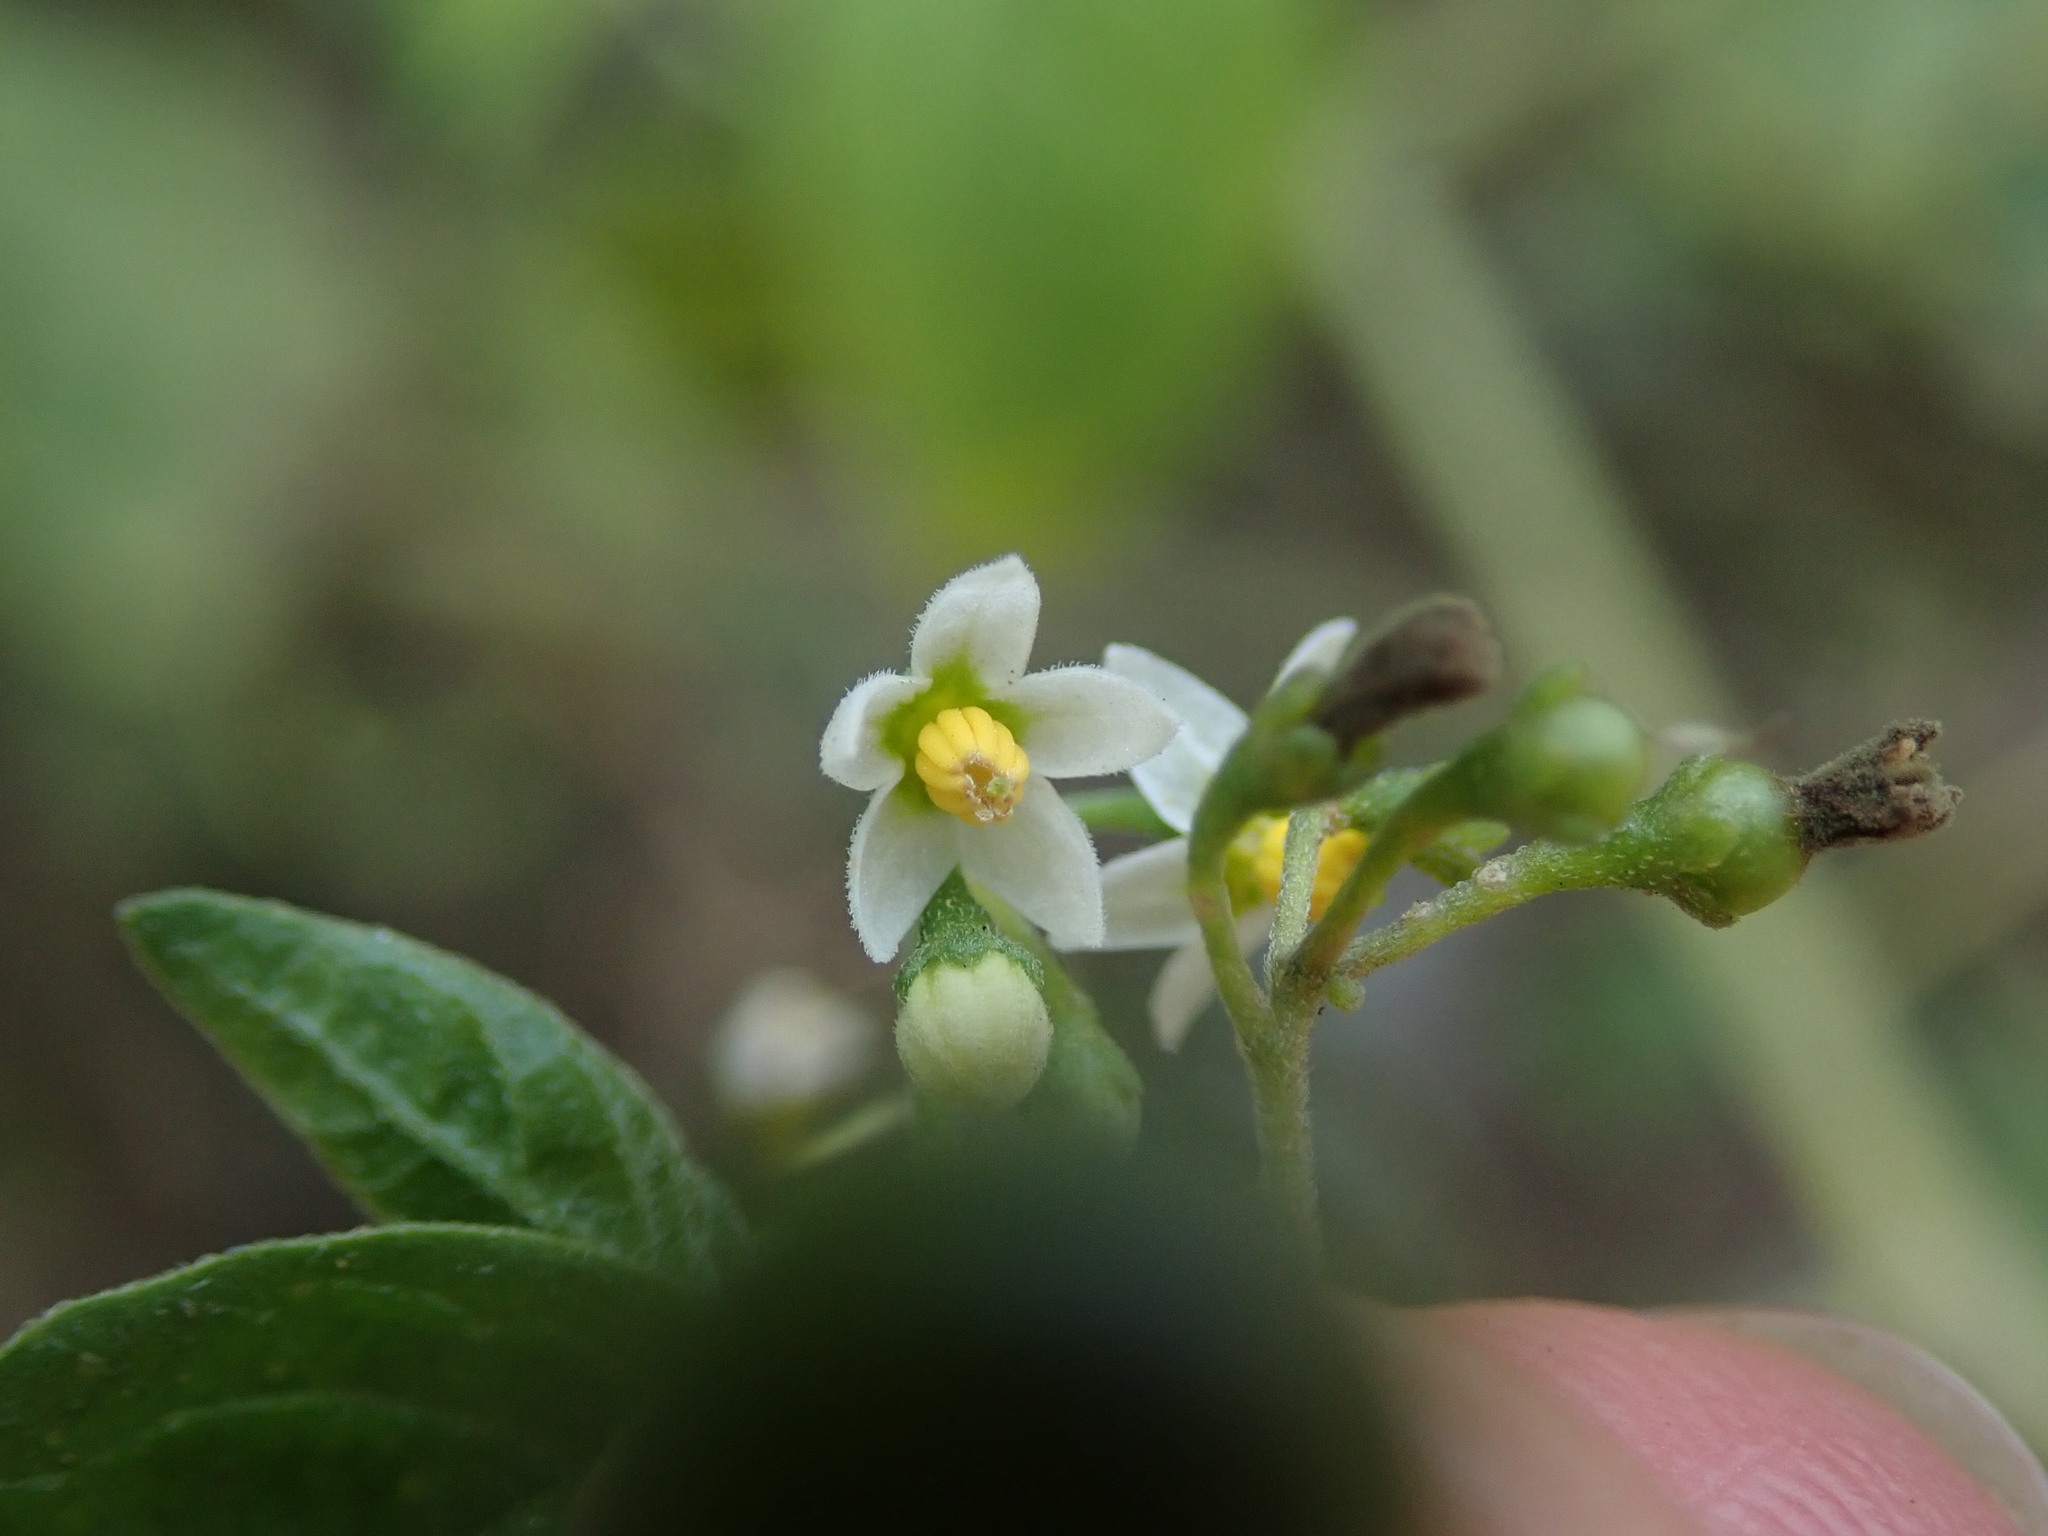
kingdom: Plantae
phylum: Tracheophyta
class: Magnoliopsida
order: Solanales
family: Solanaceae
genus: Solanum
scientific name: Solanum americanum
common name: American black nightshade
